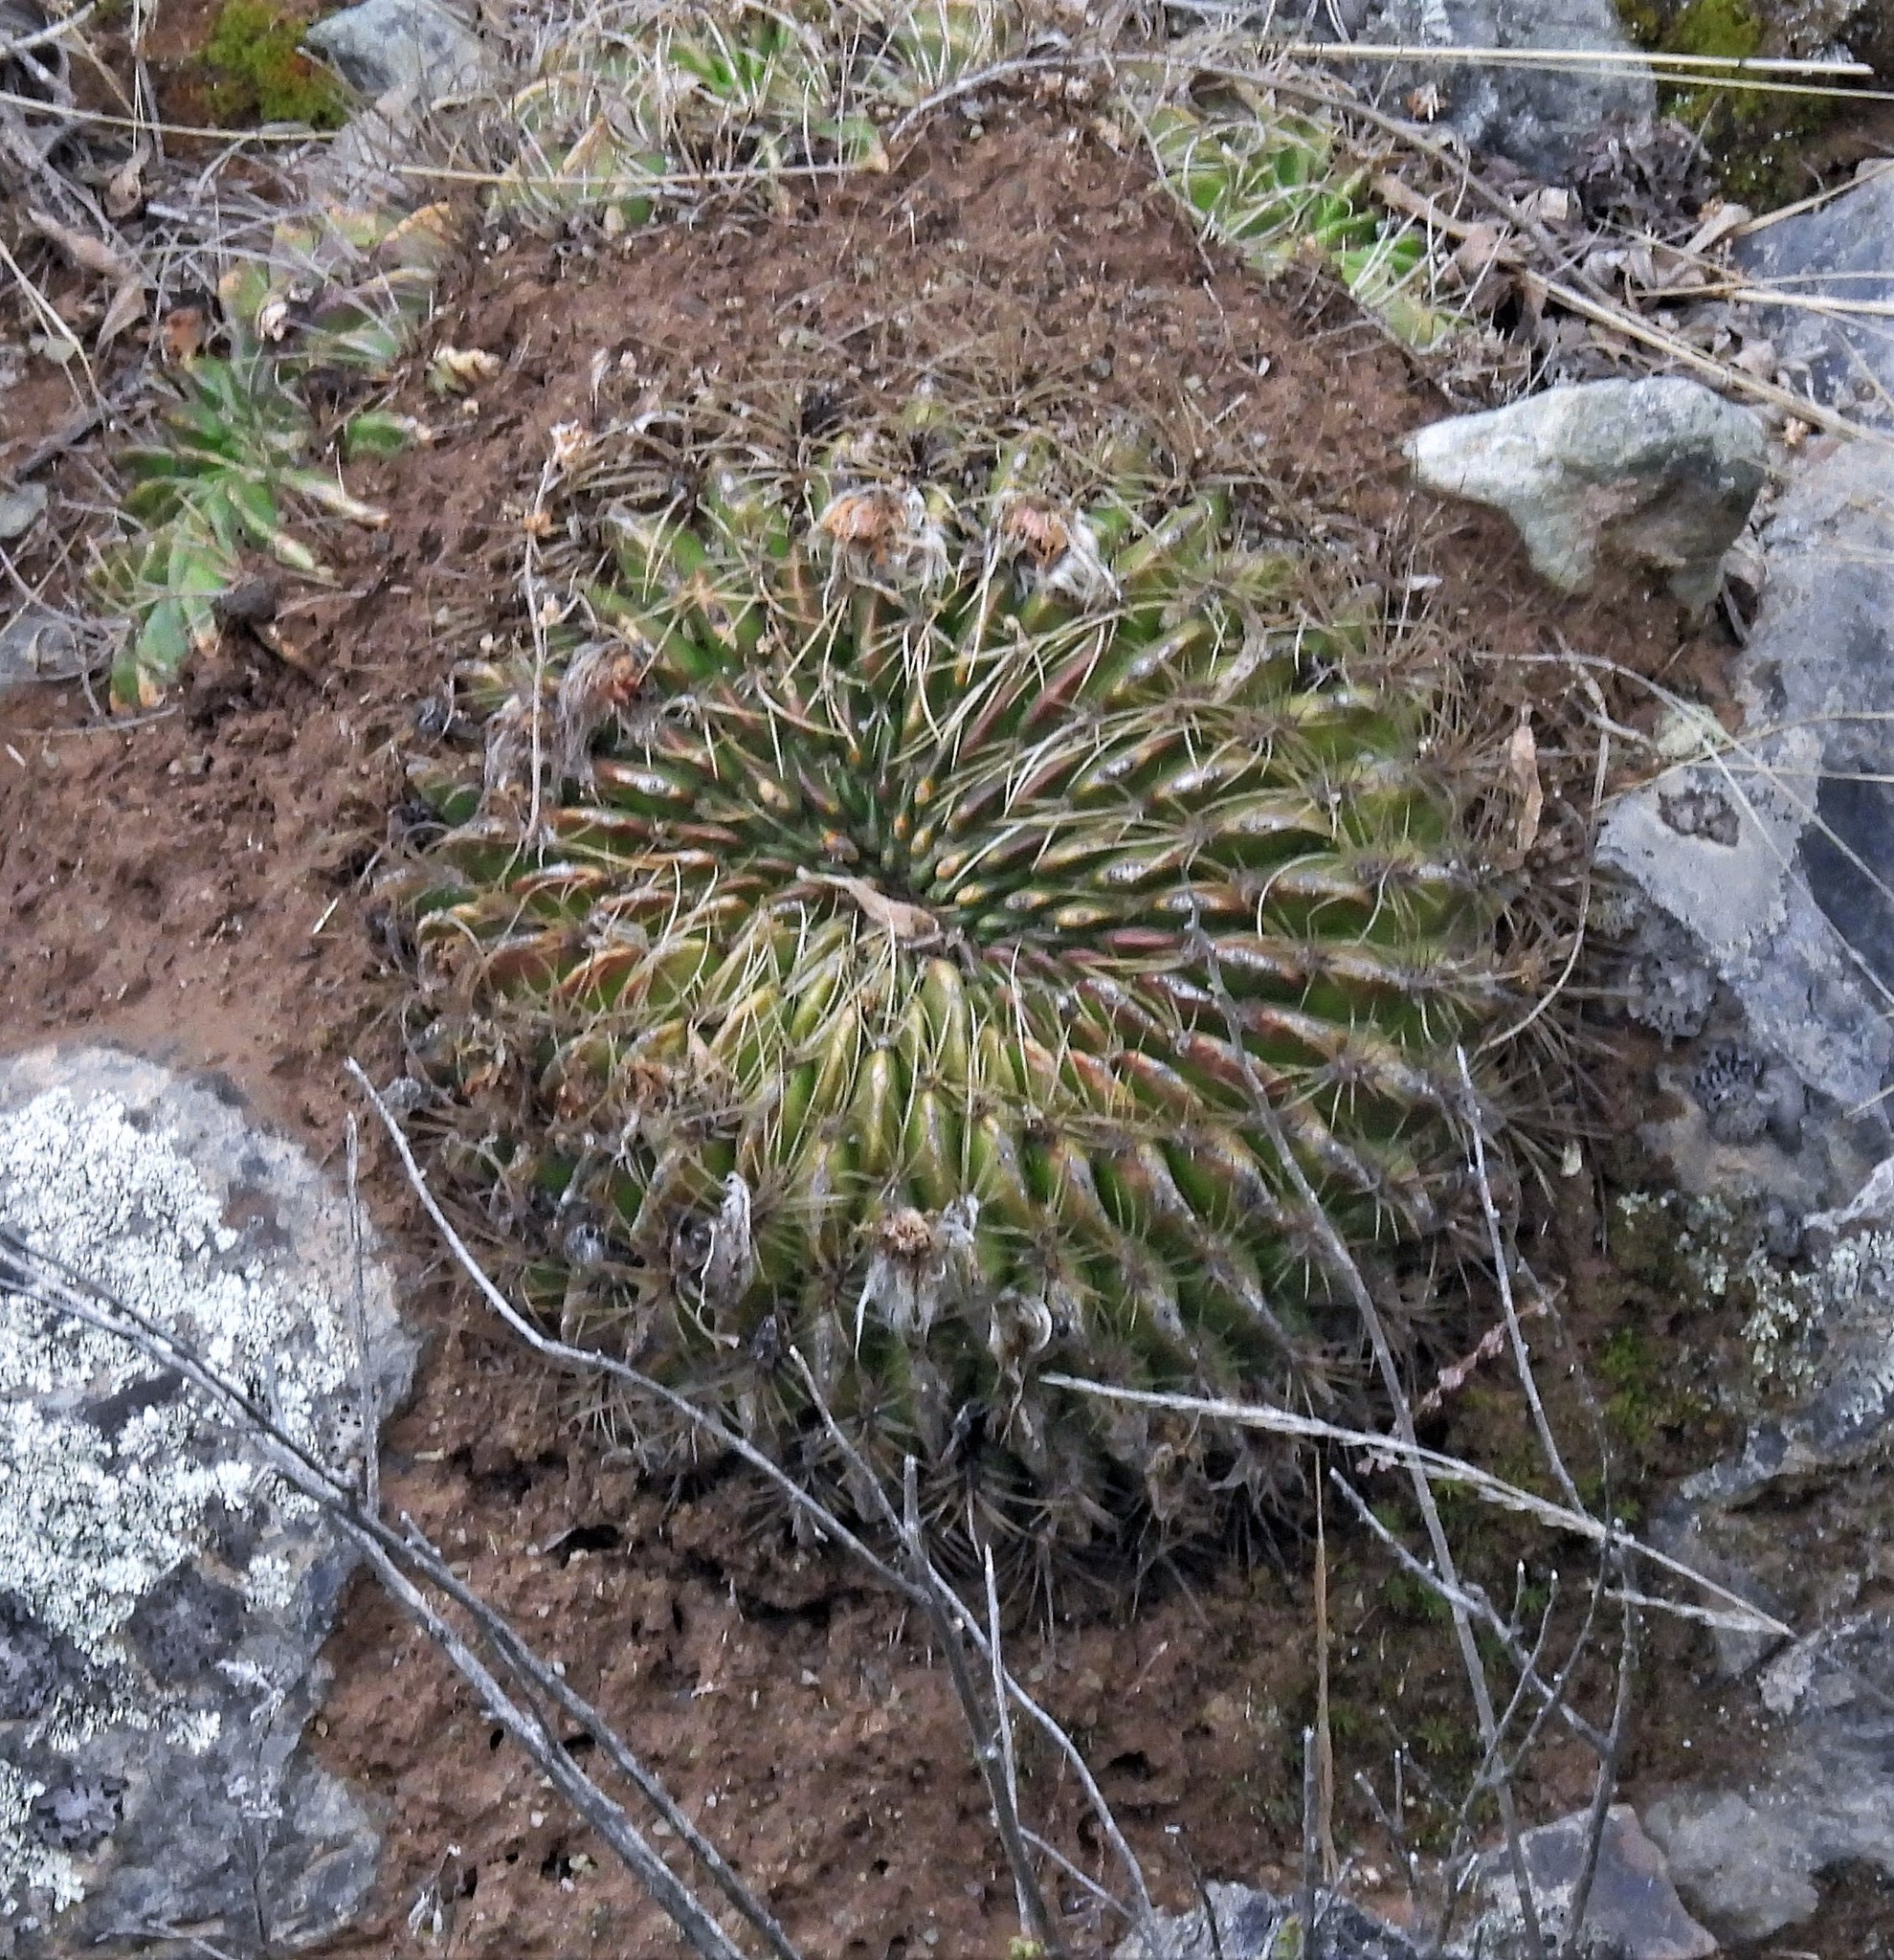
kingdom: Plantae
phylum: Tracheophyta
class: Magnoliopsida
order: Caryophyllales
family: Cactaceae
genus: Lobivia
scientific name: Lobivia chrysochete
